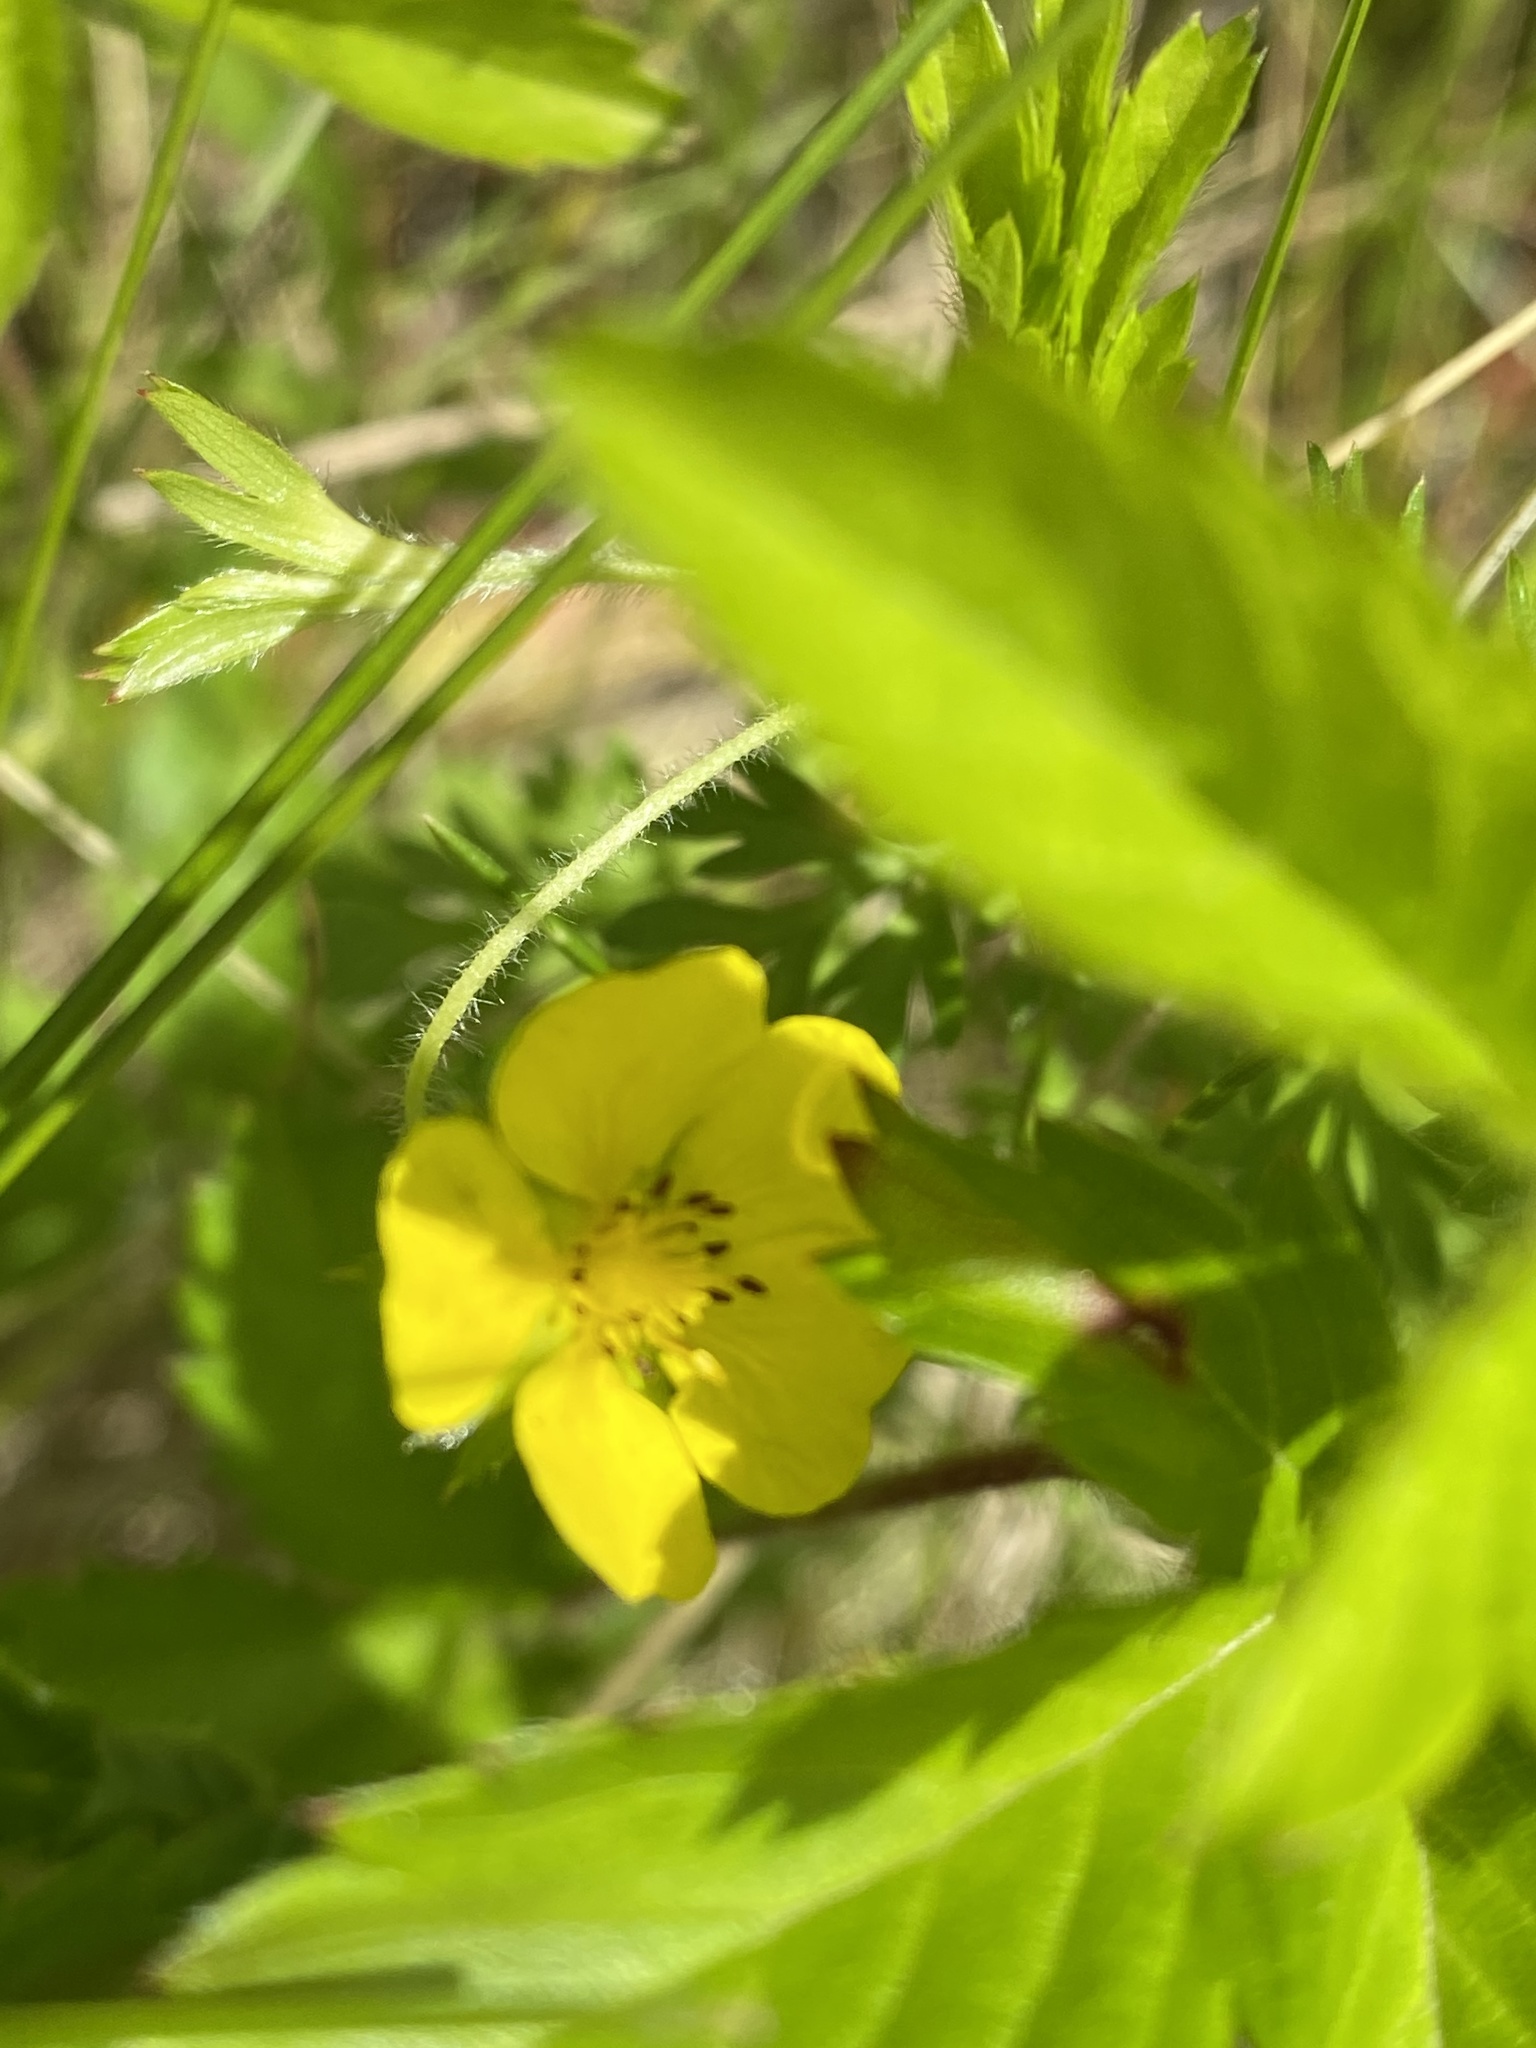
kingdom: Plantae
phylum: Tracheophyta
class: Magnoliopsida
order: Rosales
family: Rosaceae
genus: Potentilla
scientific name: Potentilla simplex
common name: Old field cinquefoil
